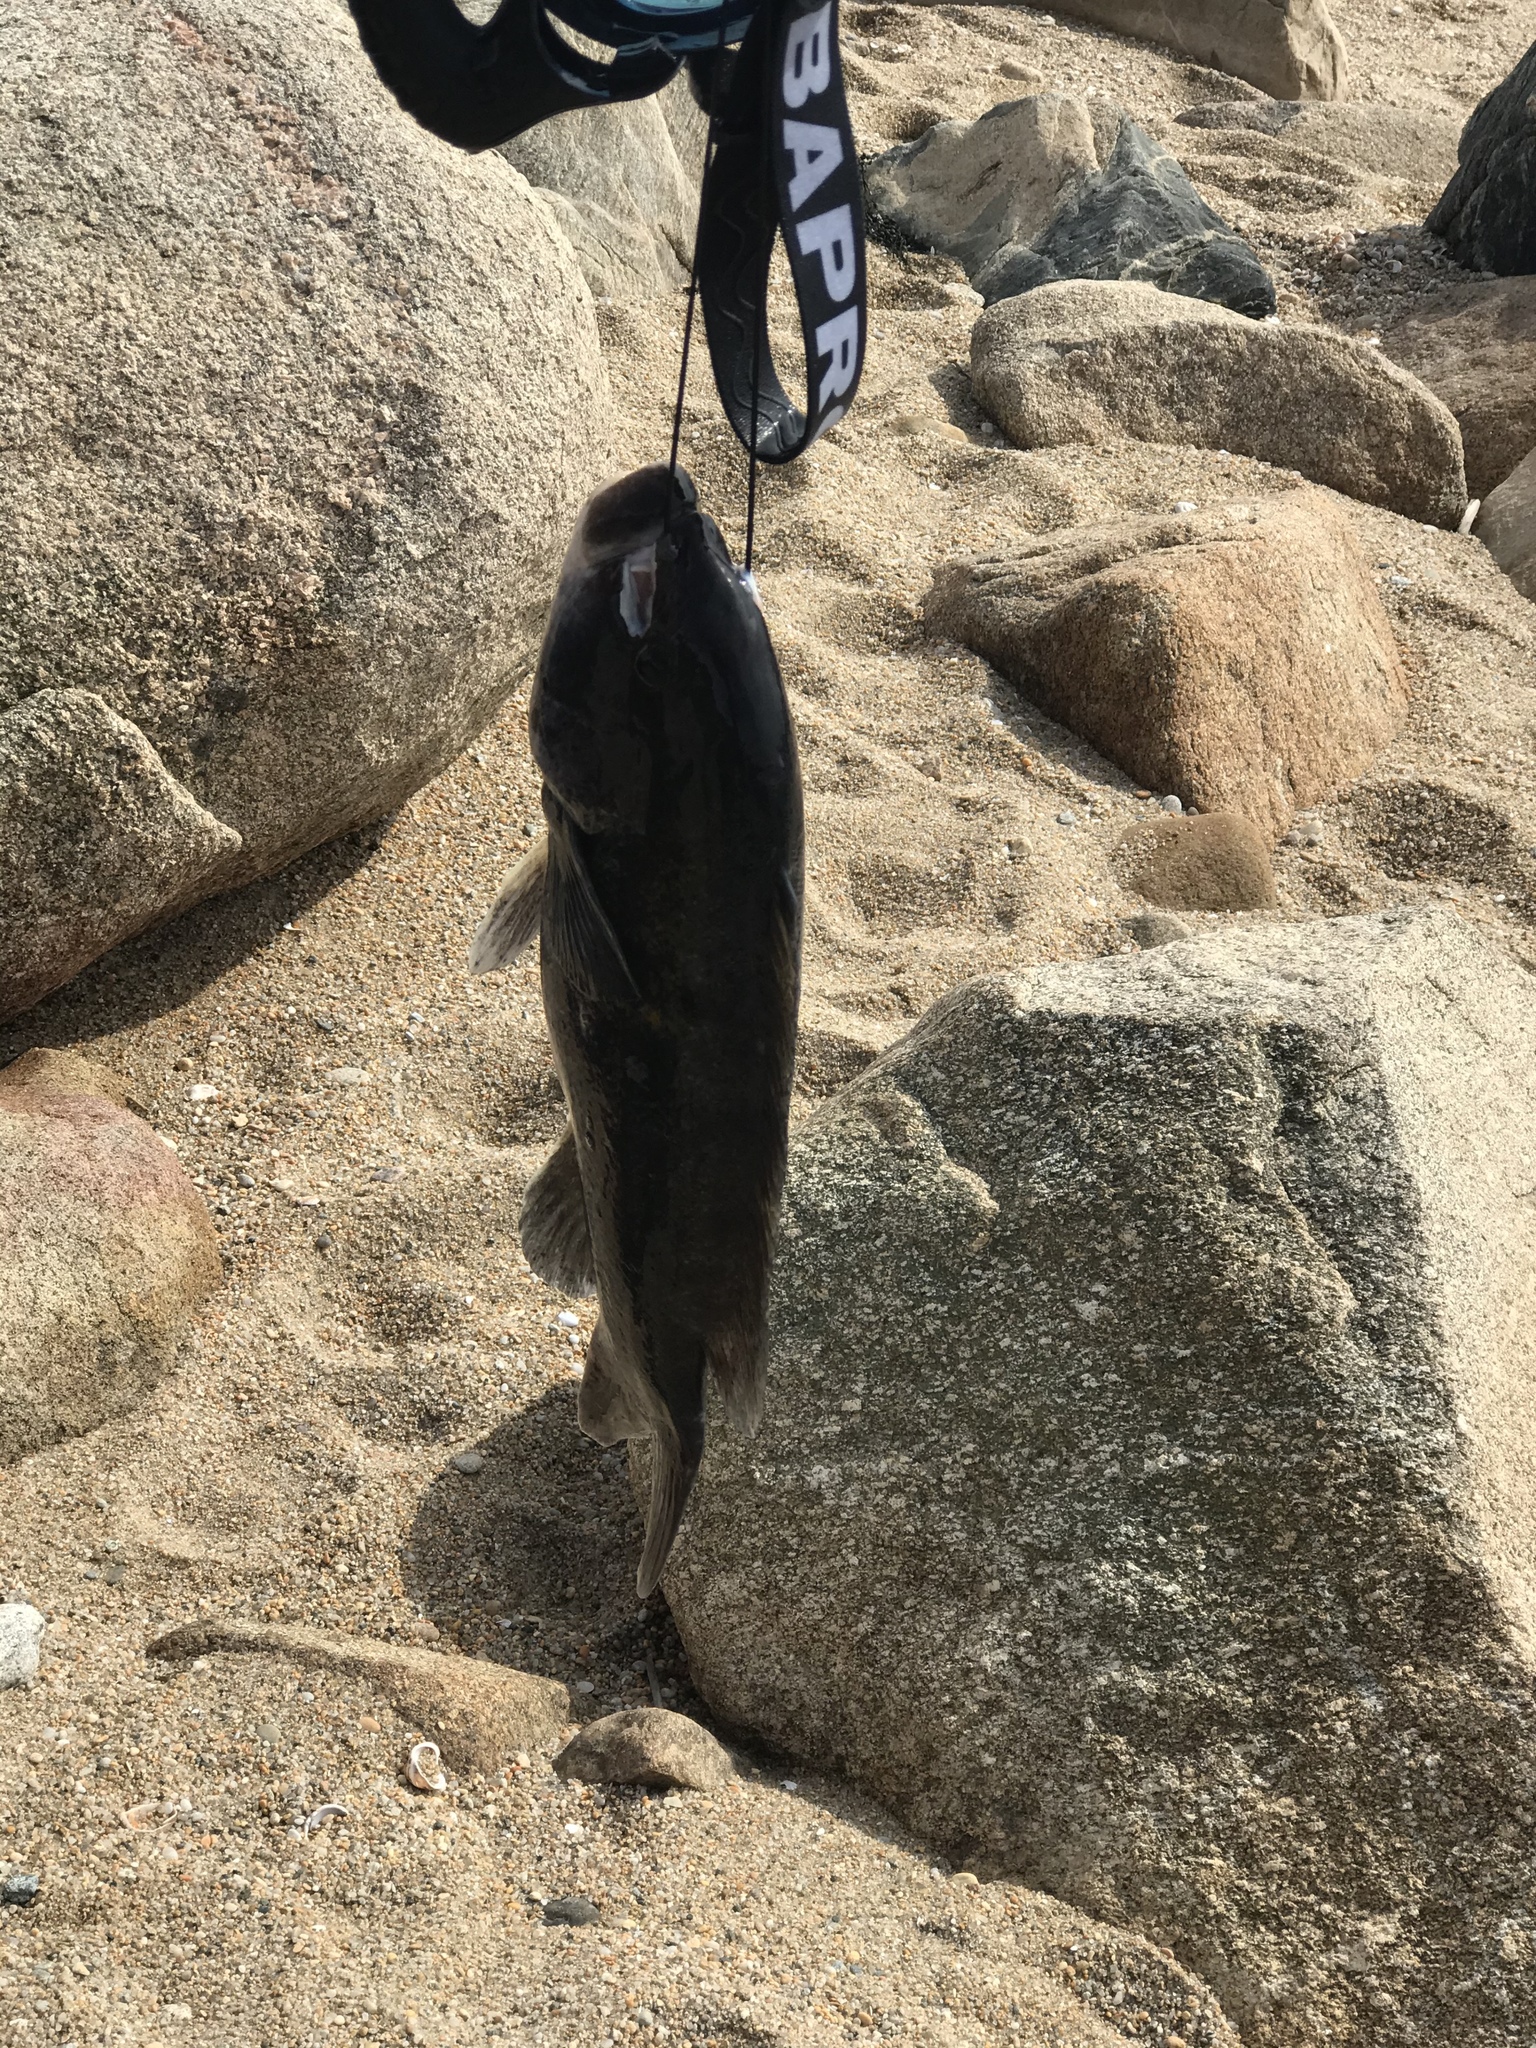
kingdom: Animalia
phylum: Chordata
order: Perciformes
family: Labridae
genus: Tautoga
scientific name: Tautoga onitis
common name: Tautog
